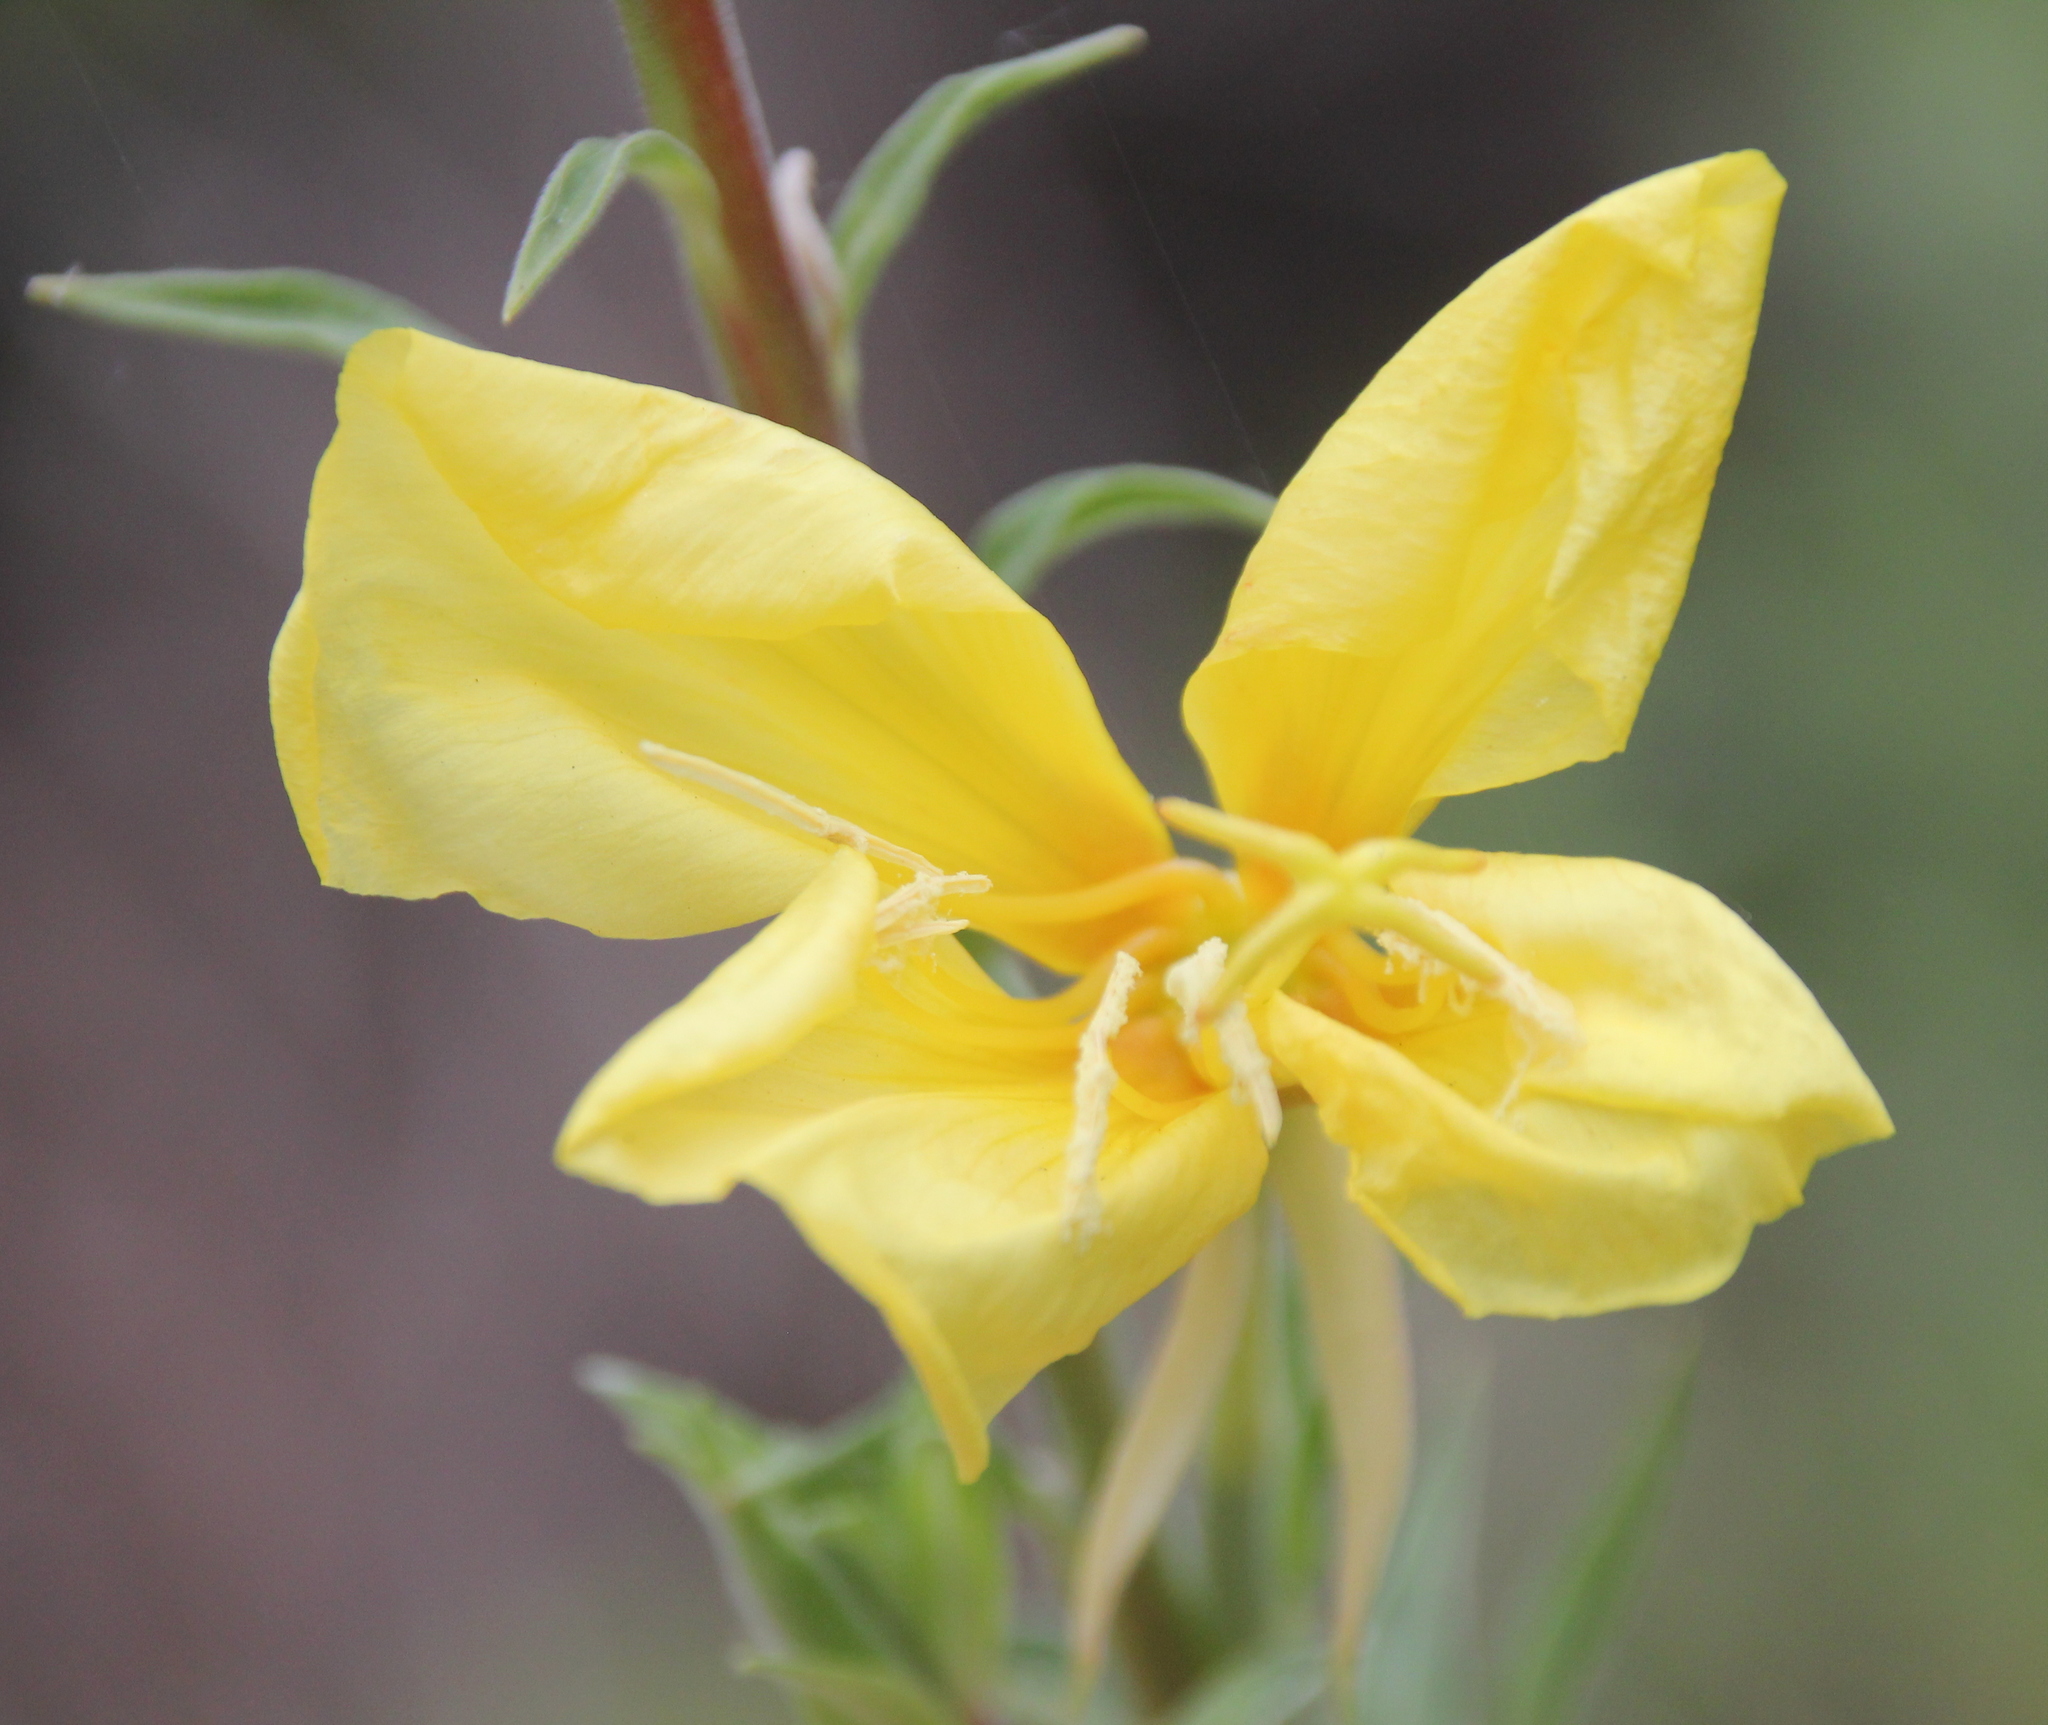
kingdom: Plantae
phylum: Tracheophyta
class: Magnoliopsida
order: Myrtales
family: Onagraceae
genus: Oenothera
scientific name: Oenothera elata
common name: Hooker's evening-primrose
